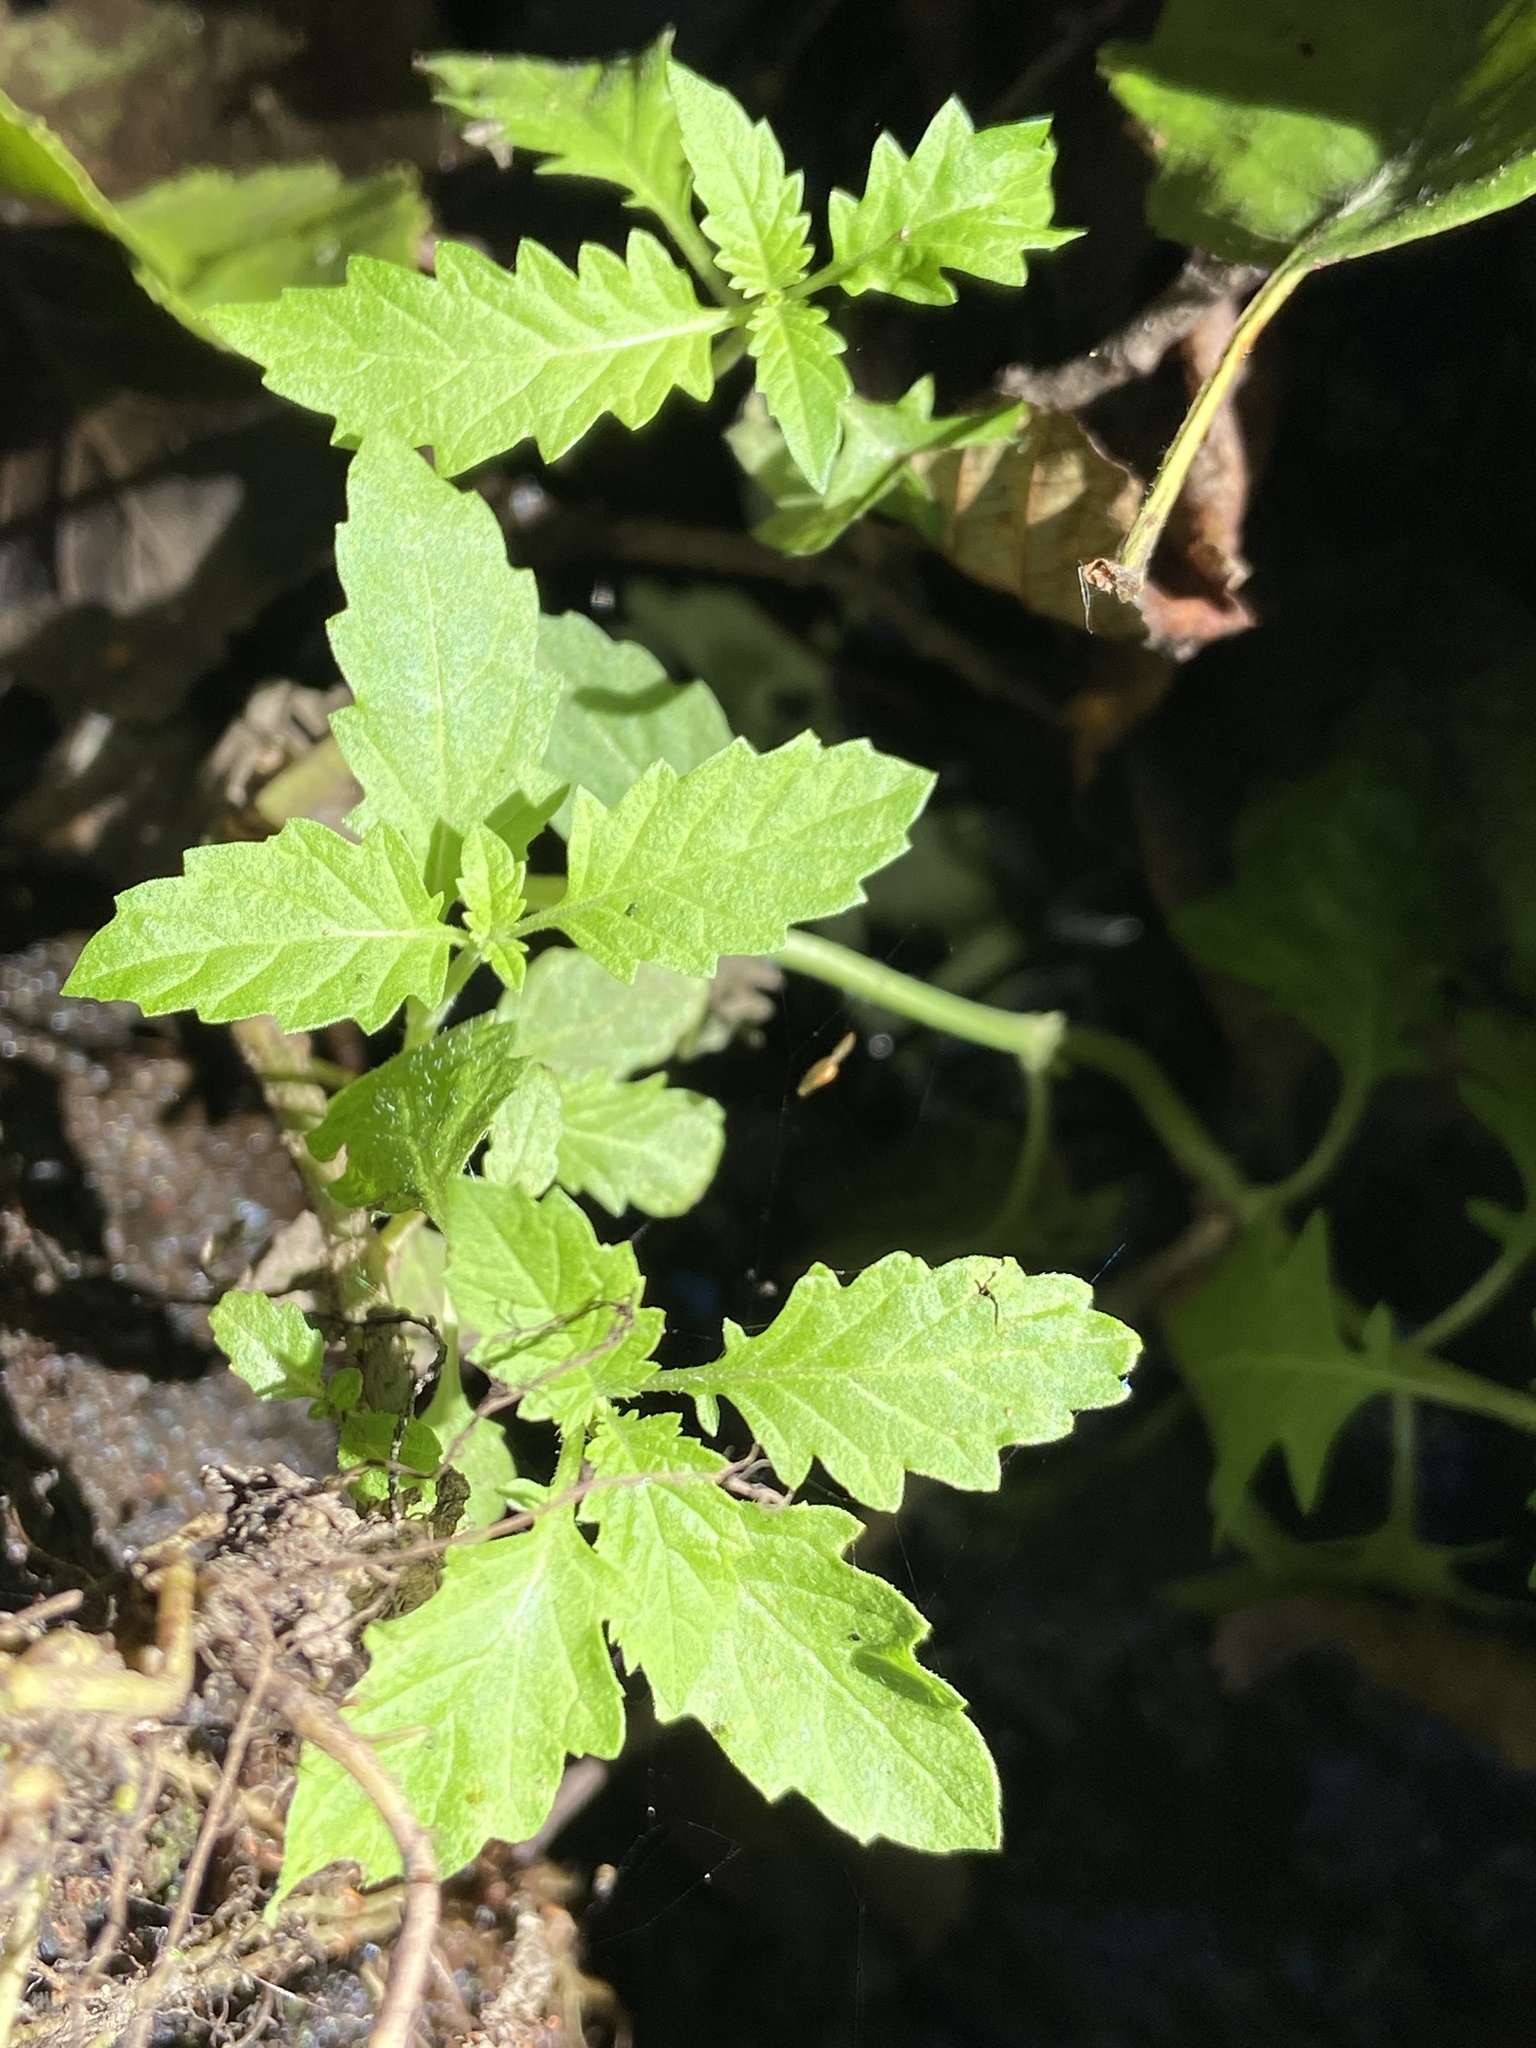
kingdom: Plantae
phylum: Tracheophyta
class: Magnoliopsida
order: Lamiales
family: Lamiaceae
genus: Lycopus
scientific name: Lycopus europaeus
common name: European bugleweed
